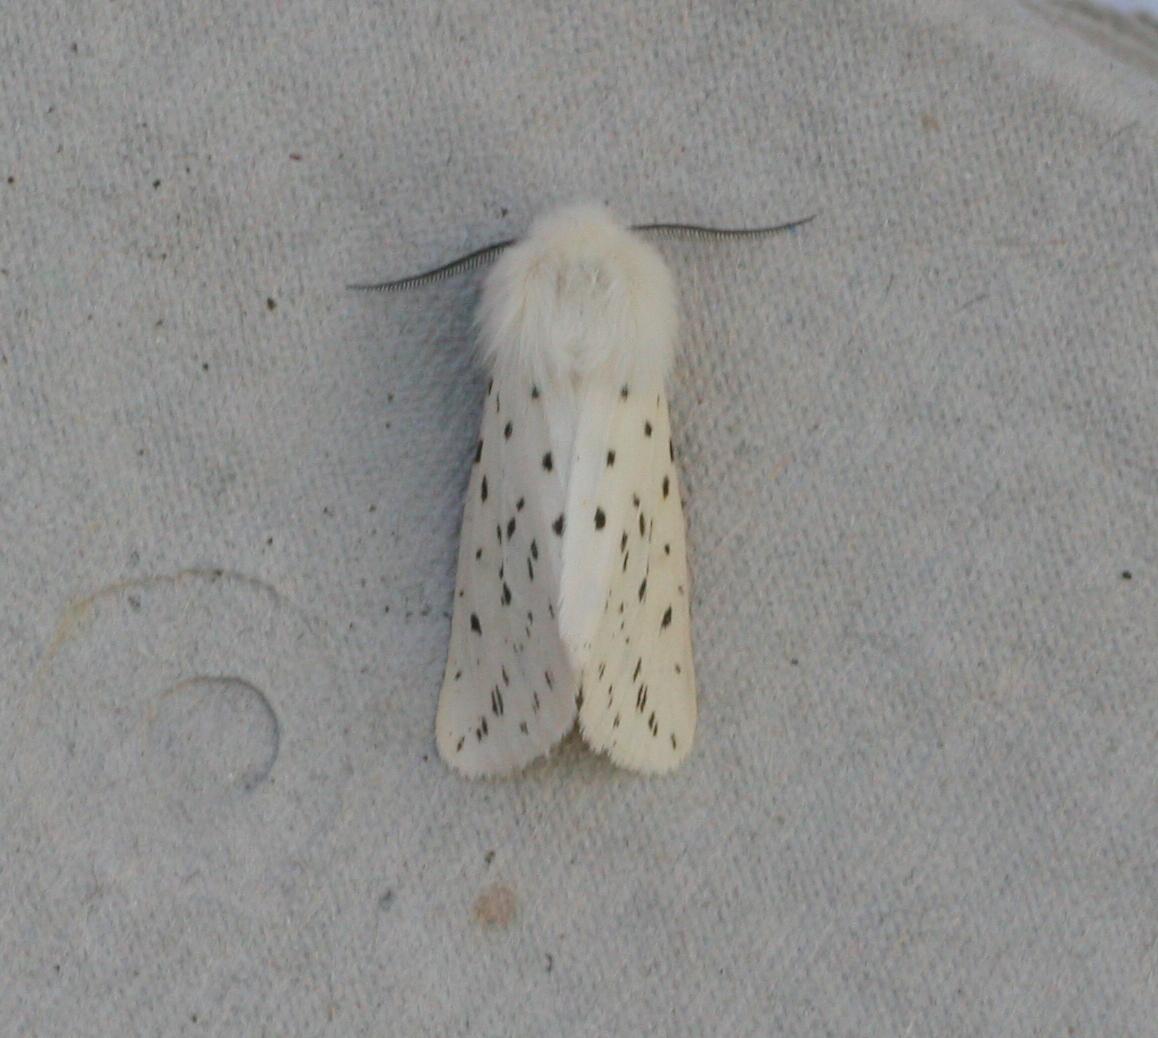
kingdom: Animalia
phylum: Arthropoda
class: Insecta
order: Lepidoptera
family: Erebidae
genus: Spilosoma
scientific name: Spilosoma lubricipeda
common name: White ermine
